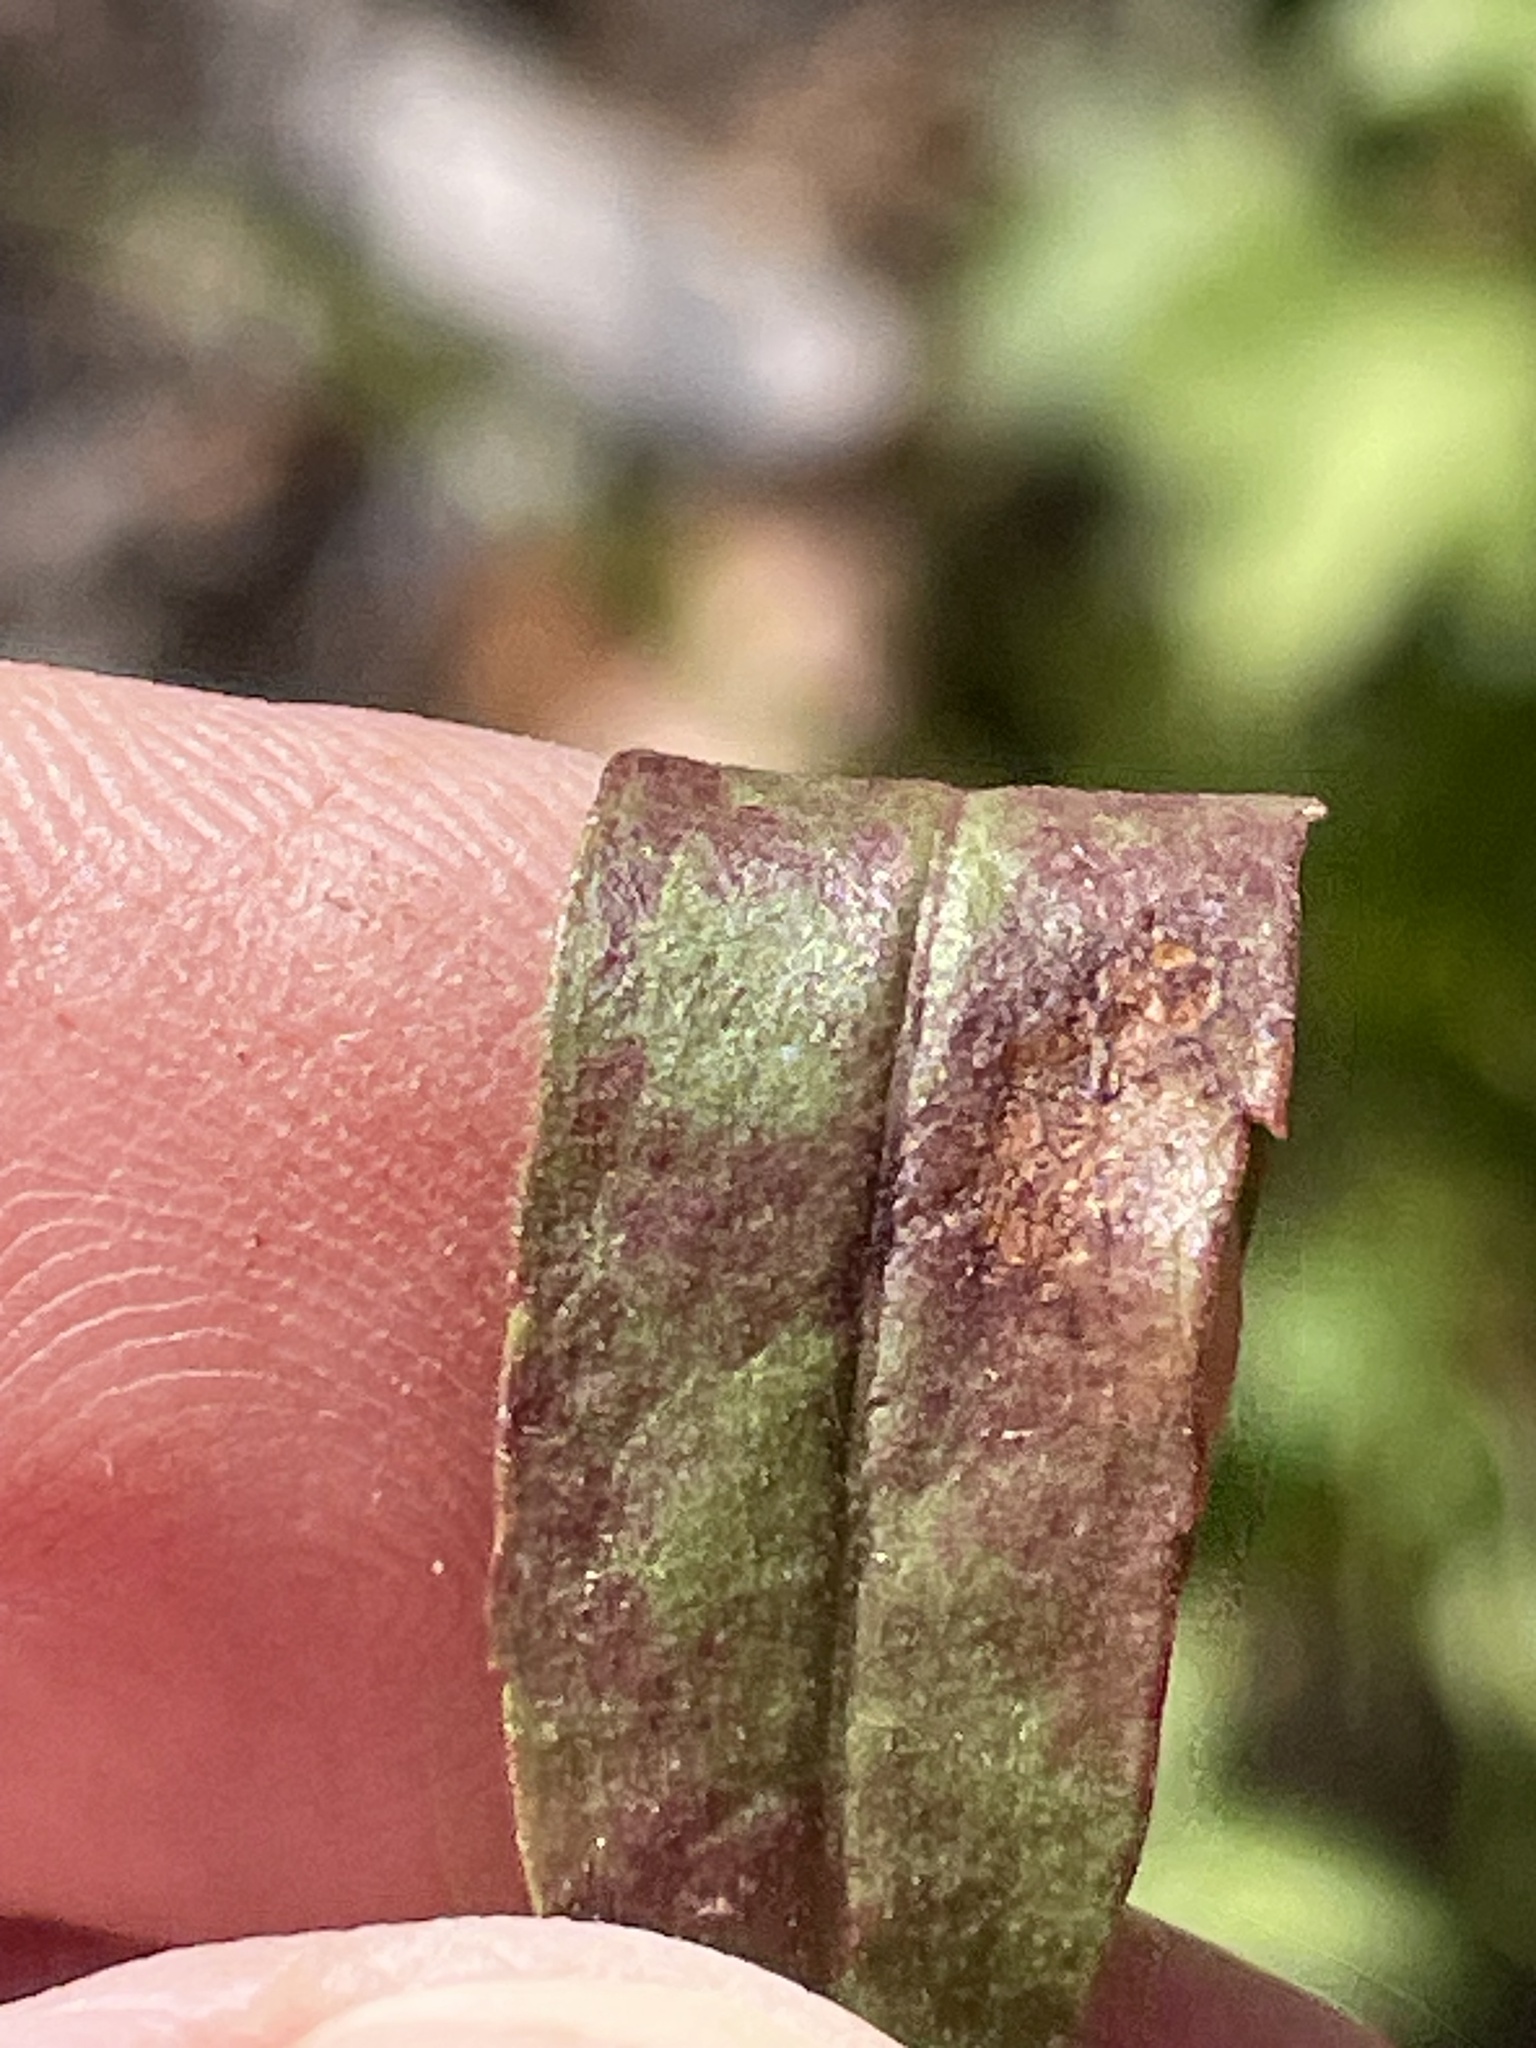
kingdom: Plantae
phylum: Tracheophyta
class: Magnoliopsida
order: Asterales
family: Asteraceae
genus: Solidago
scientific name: Solidago pulverulenta
